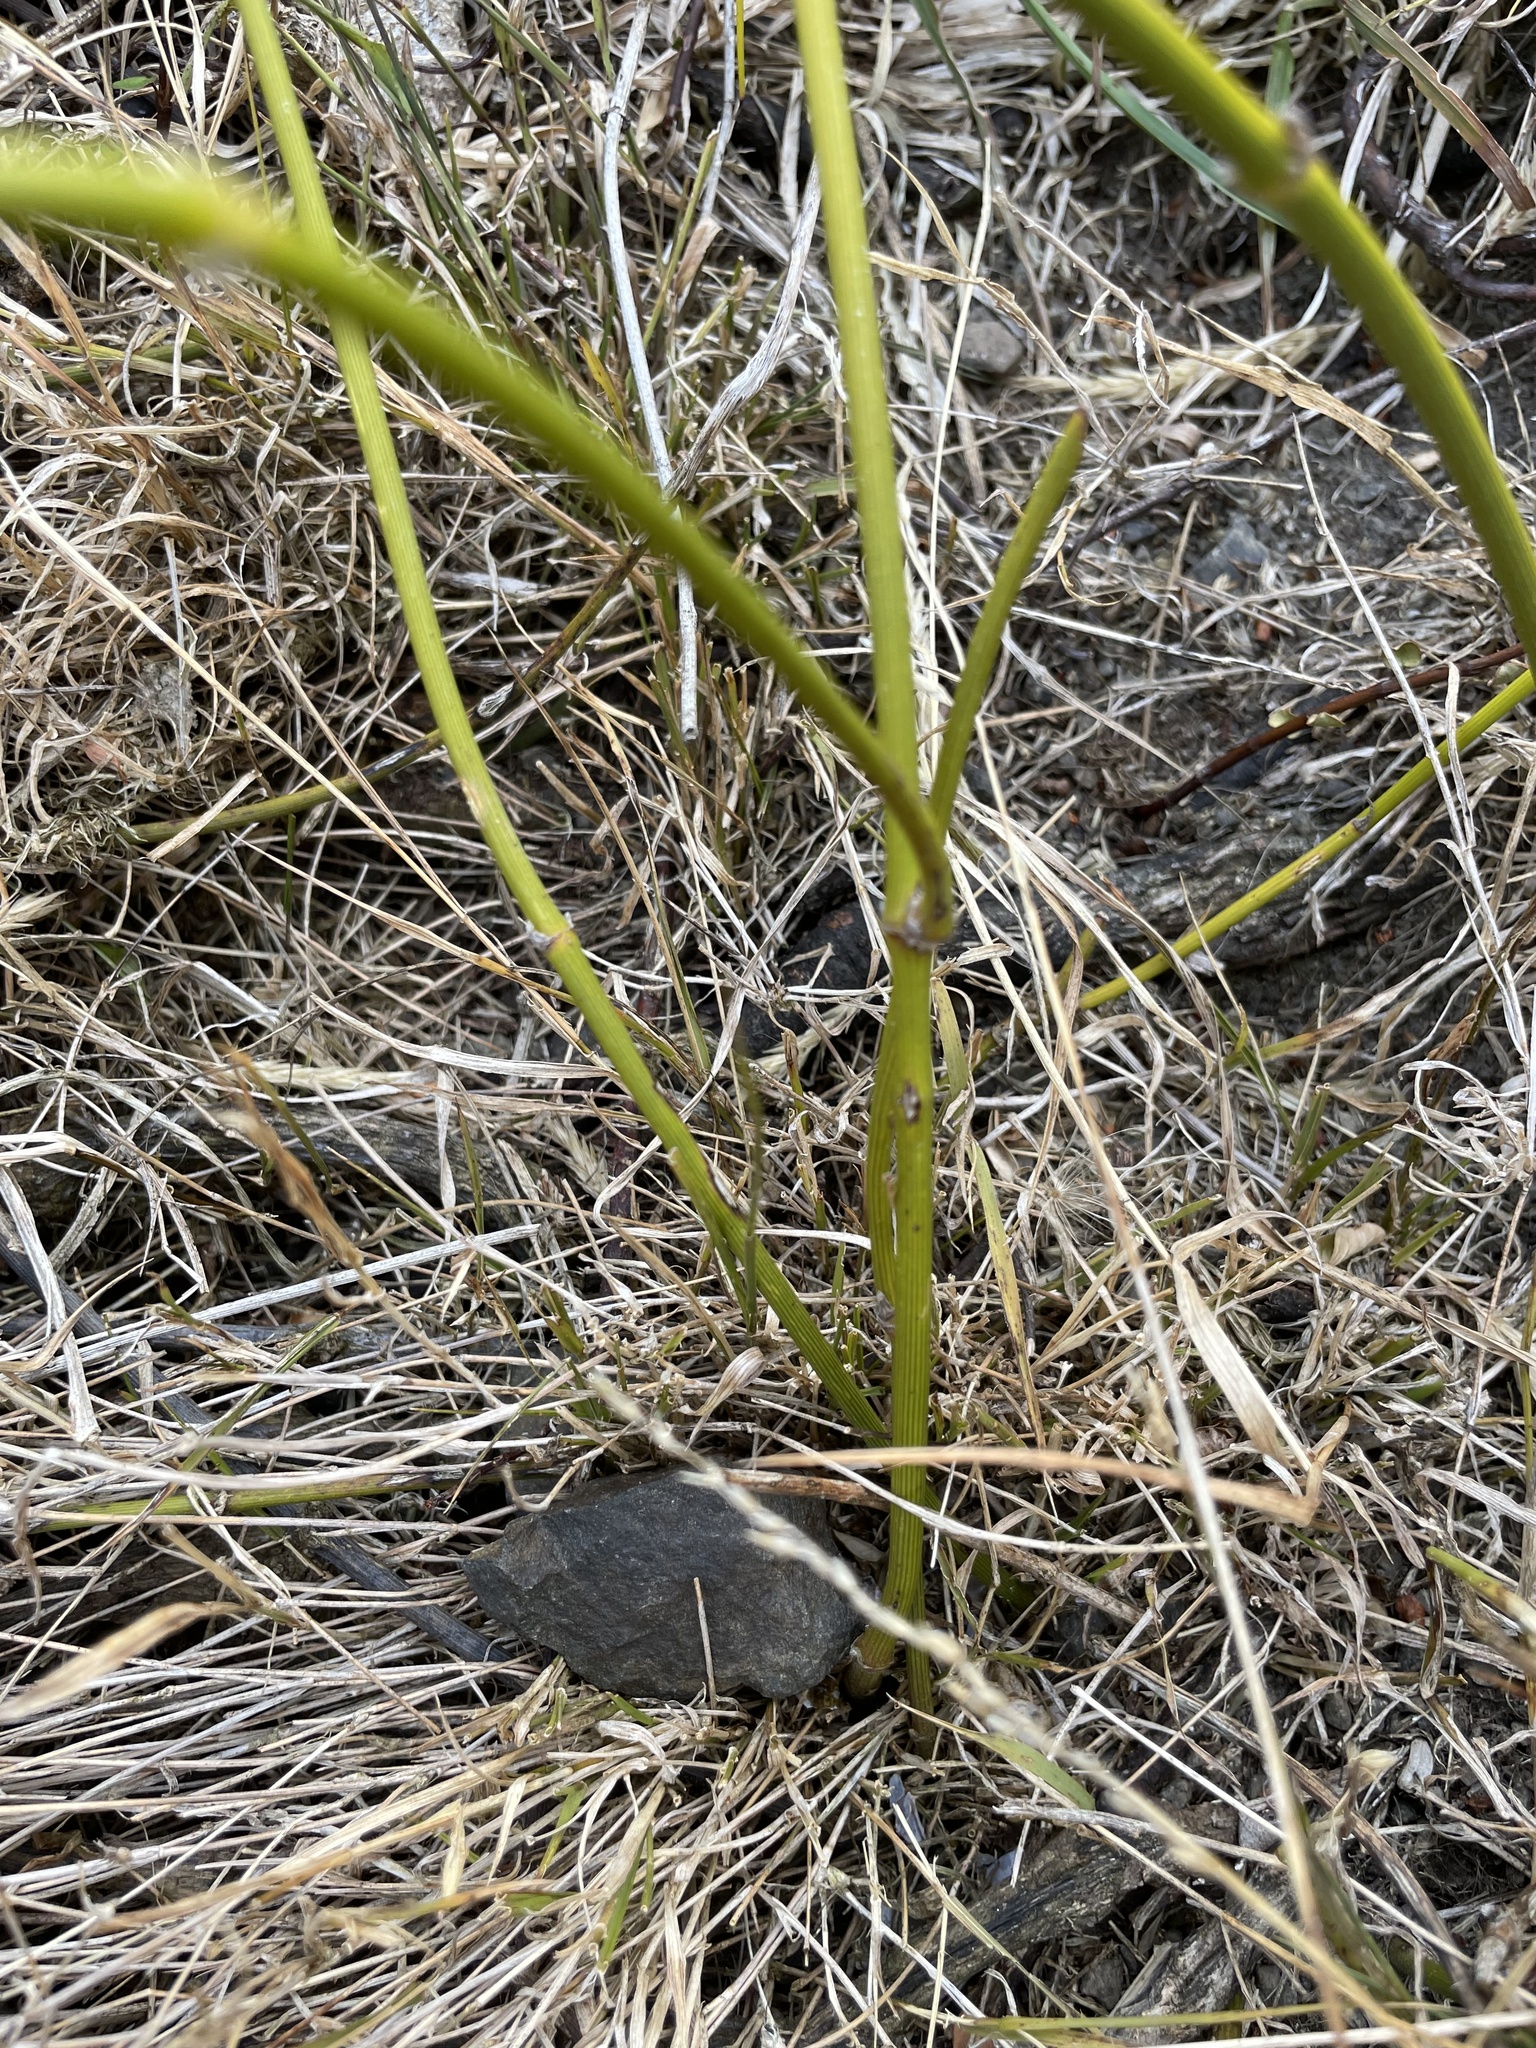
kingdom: Plantae
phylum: Tracheophyta
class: Magnoliopsida
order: Ranunculales
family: Ranunculaceae
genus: Clematis
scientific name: Clematis afoliata
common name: Rush-stem clematis
